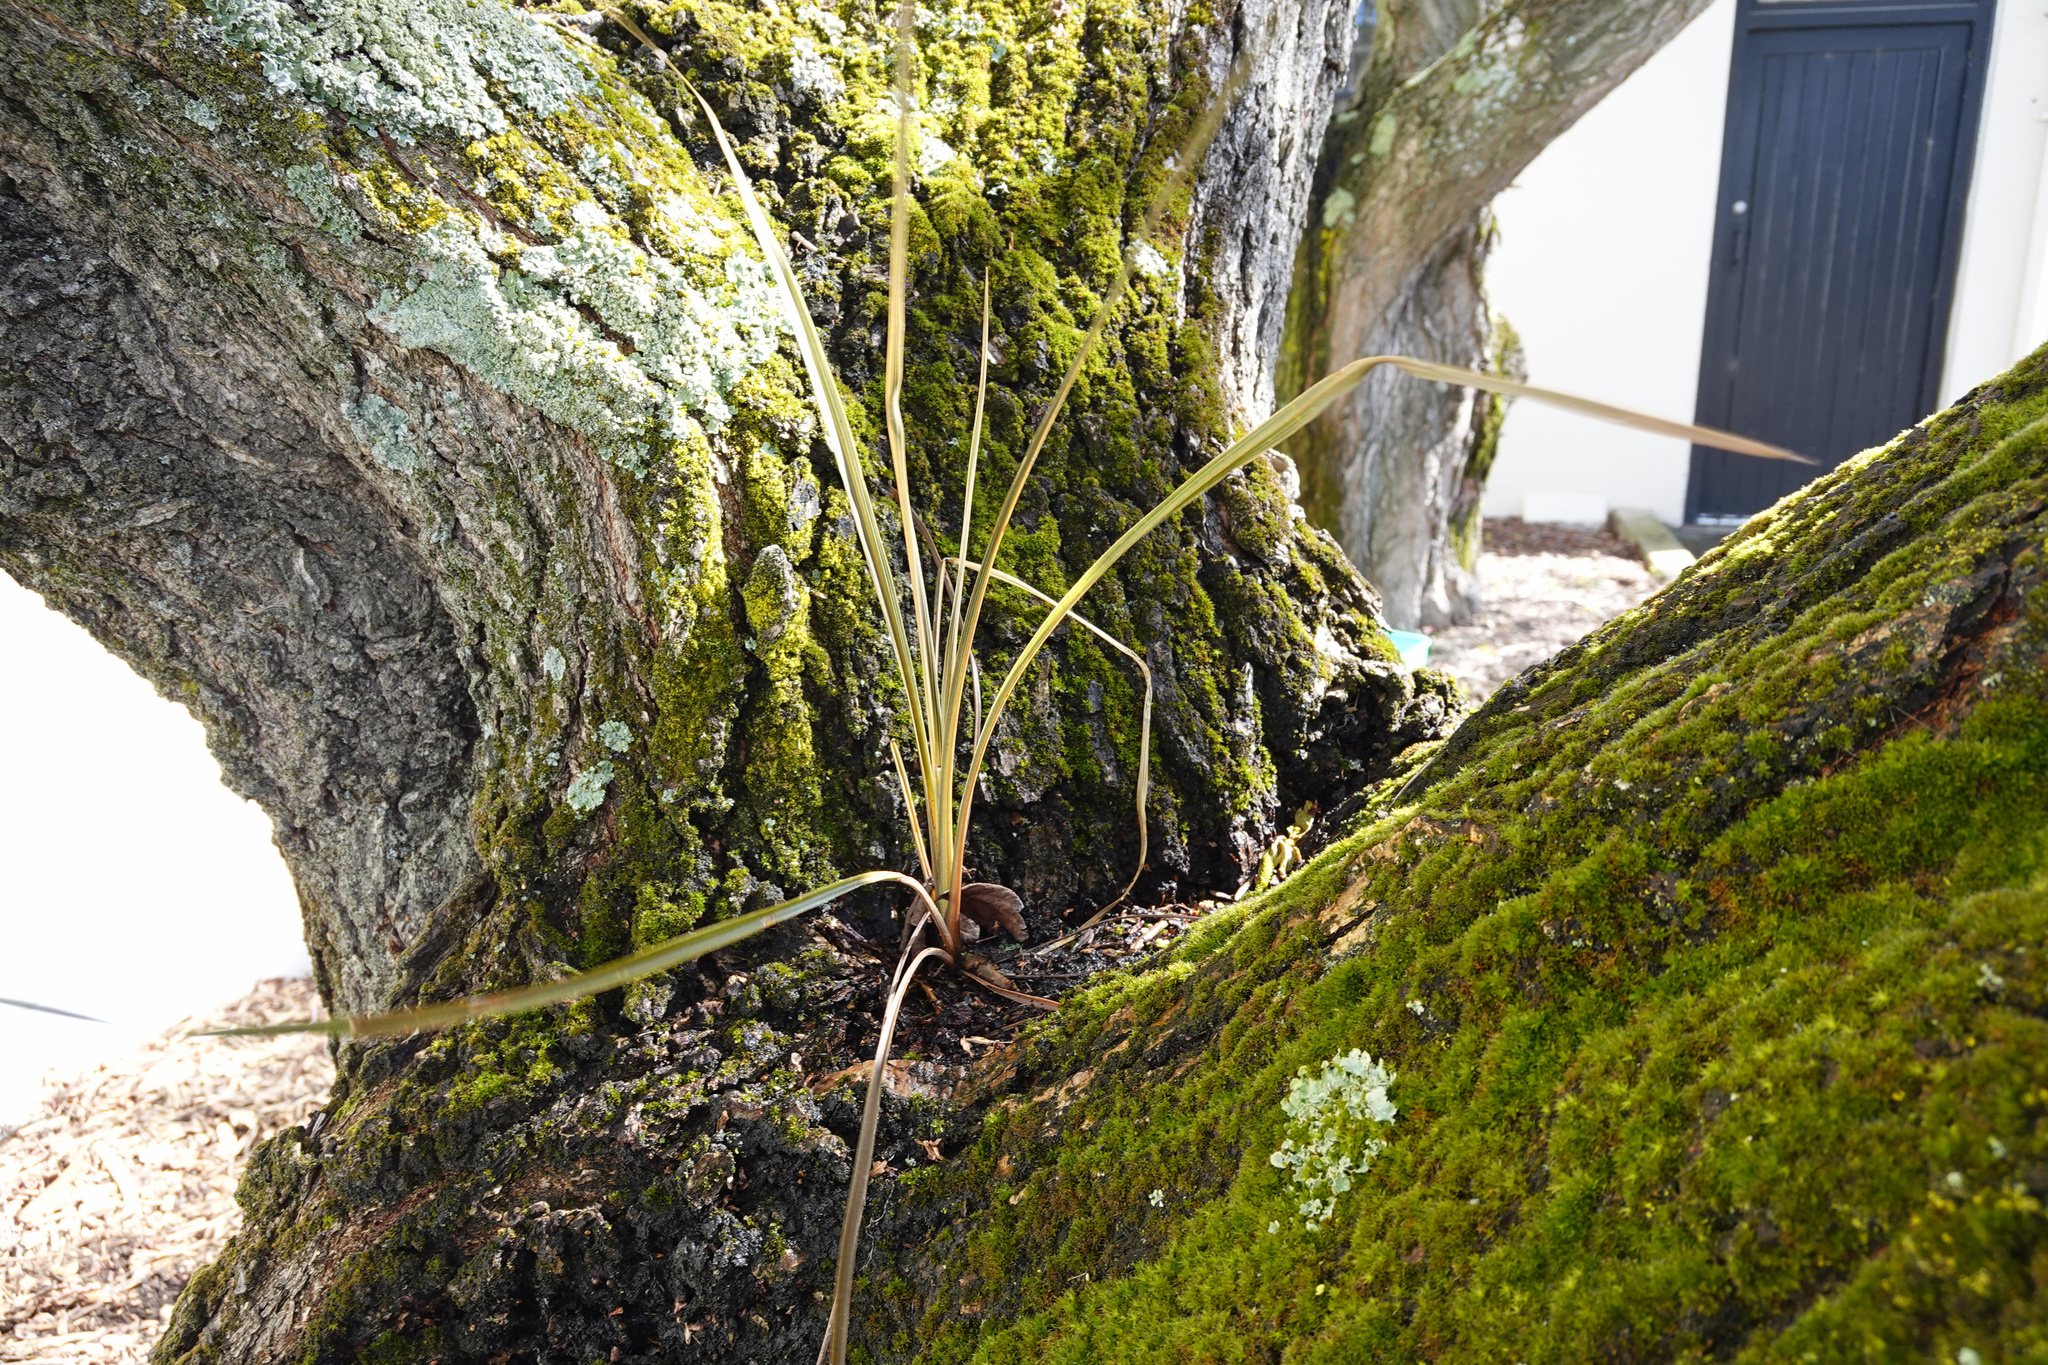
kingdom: Plantae
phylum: Tracheophyta
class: Liliopsida
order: Asparagales
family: Asparagaceae
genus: Cordyline
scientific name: Cordyline australis
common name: Cabbage-palm
